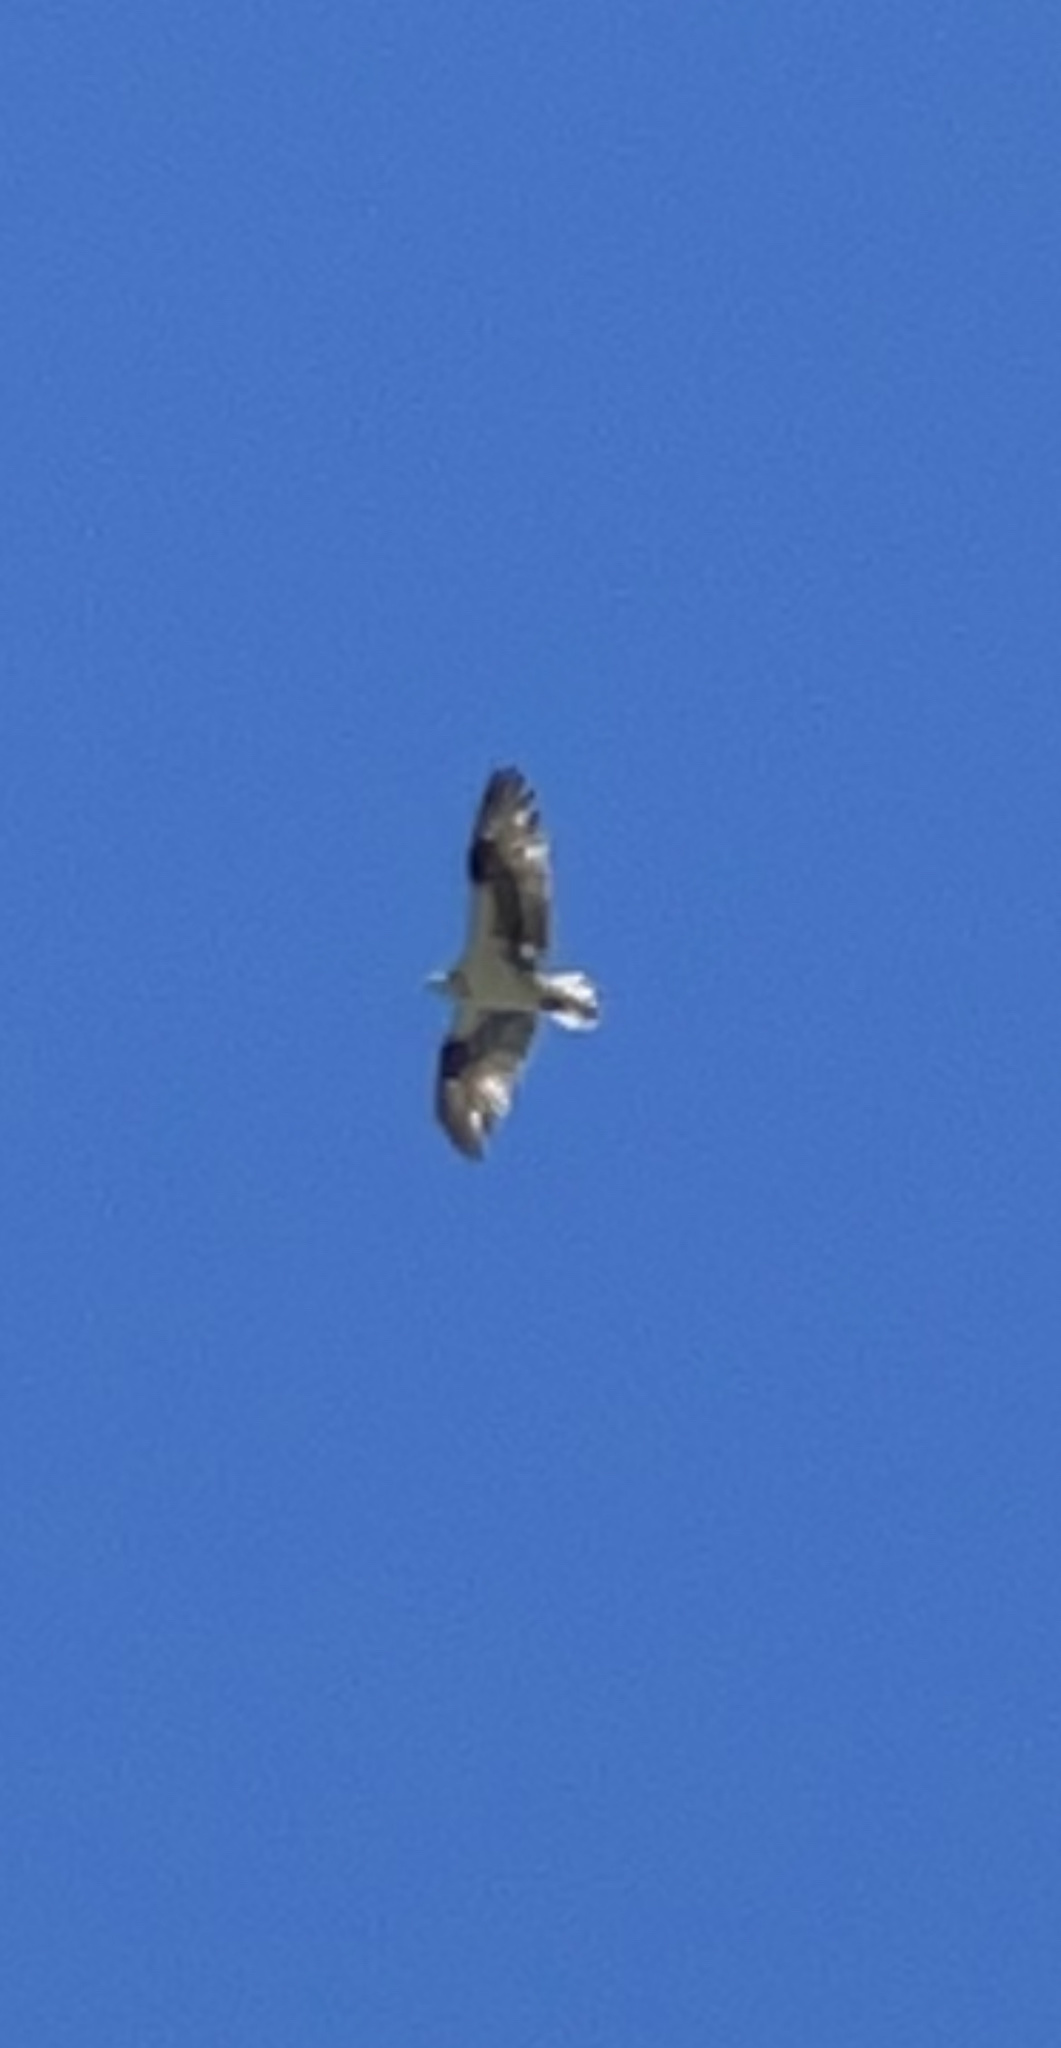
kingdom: Animalia
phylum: Chordata
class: Aves
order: Accipitriformes
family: Pandionidae
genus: Pandion
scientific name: Pandion haliaetus
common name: Osprey
